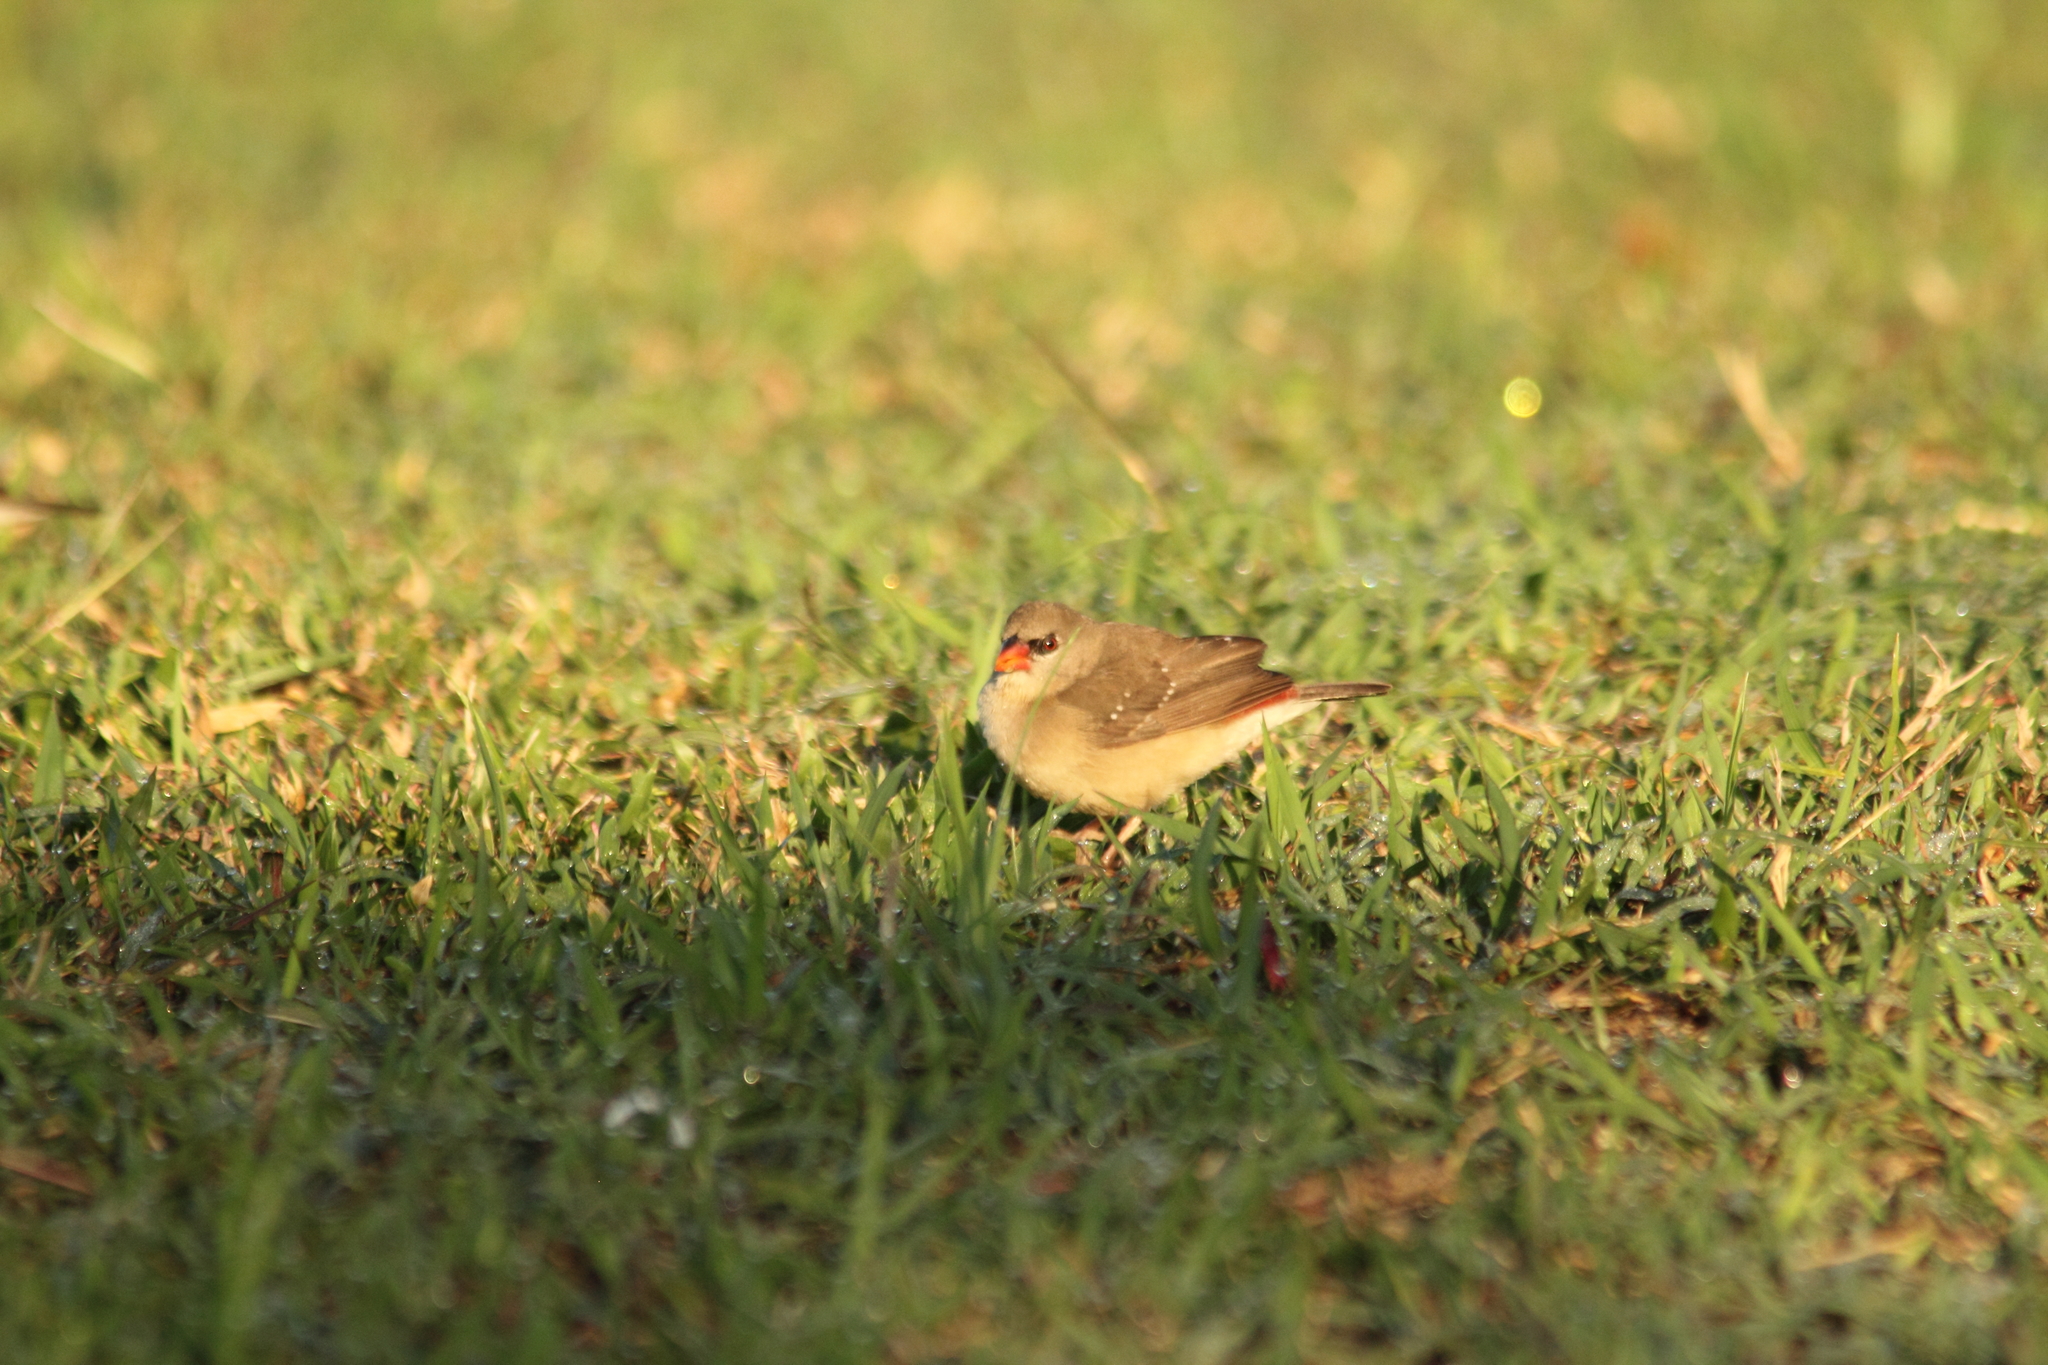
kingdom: Animalia
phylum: Chordata
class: Aves
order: Passeriformes
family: Estrildidae
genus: Amandava
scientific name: Amandava amandava
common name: Red avadavat
